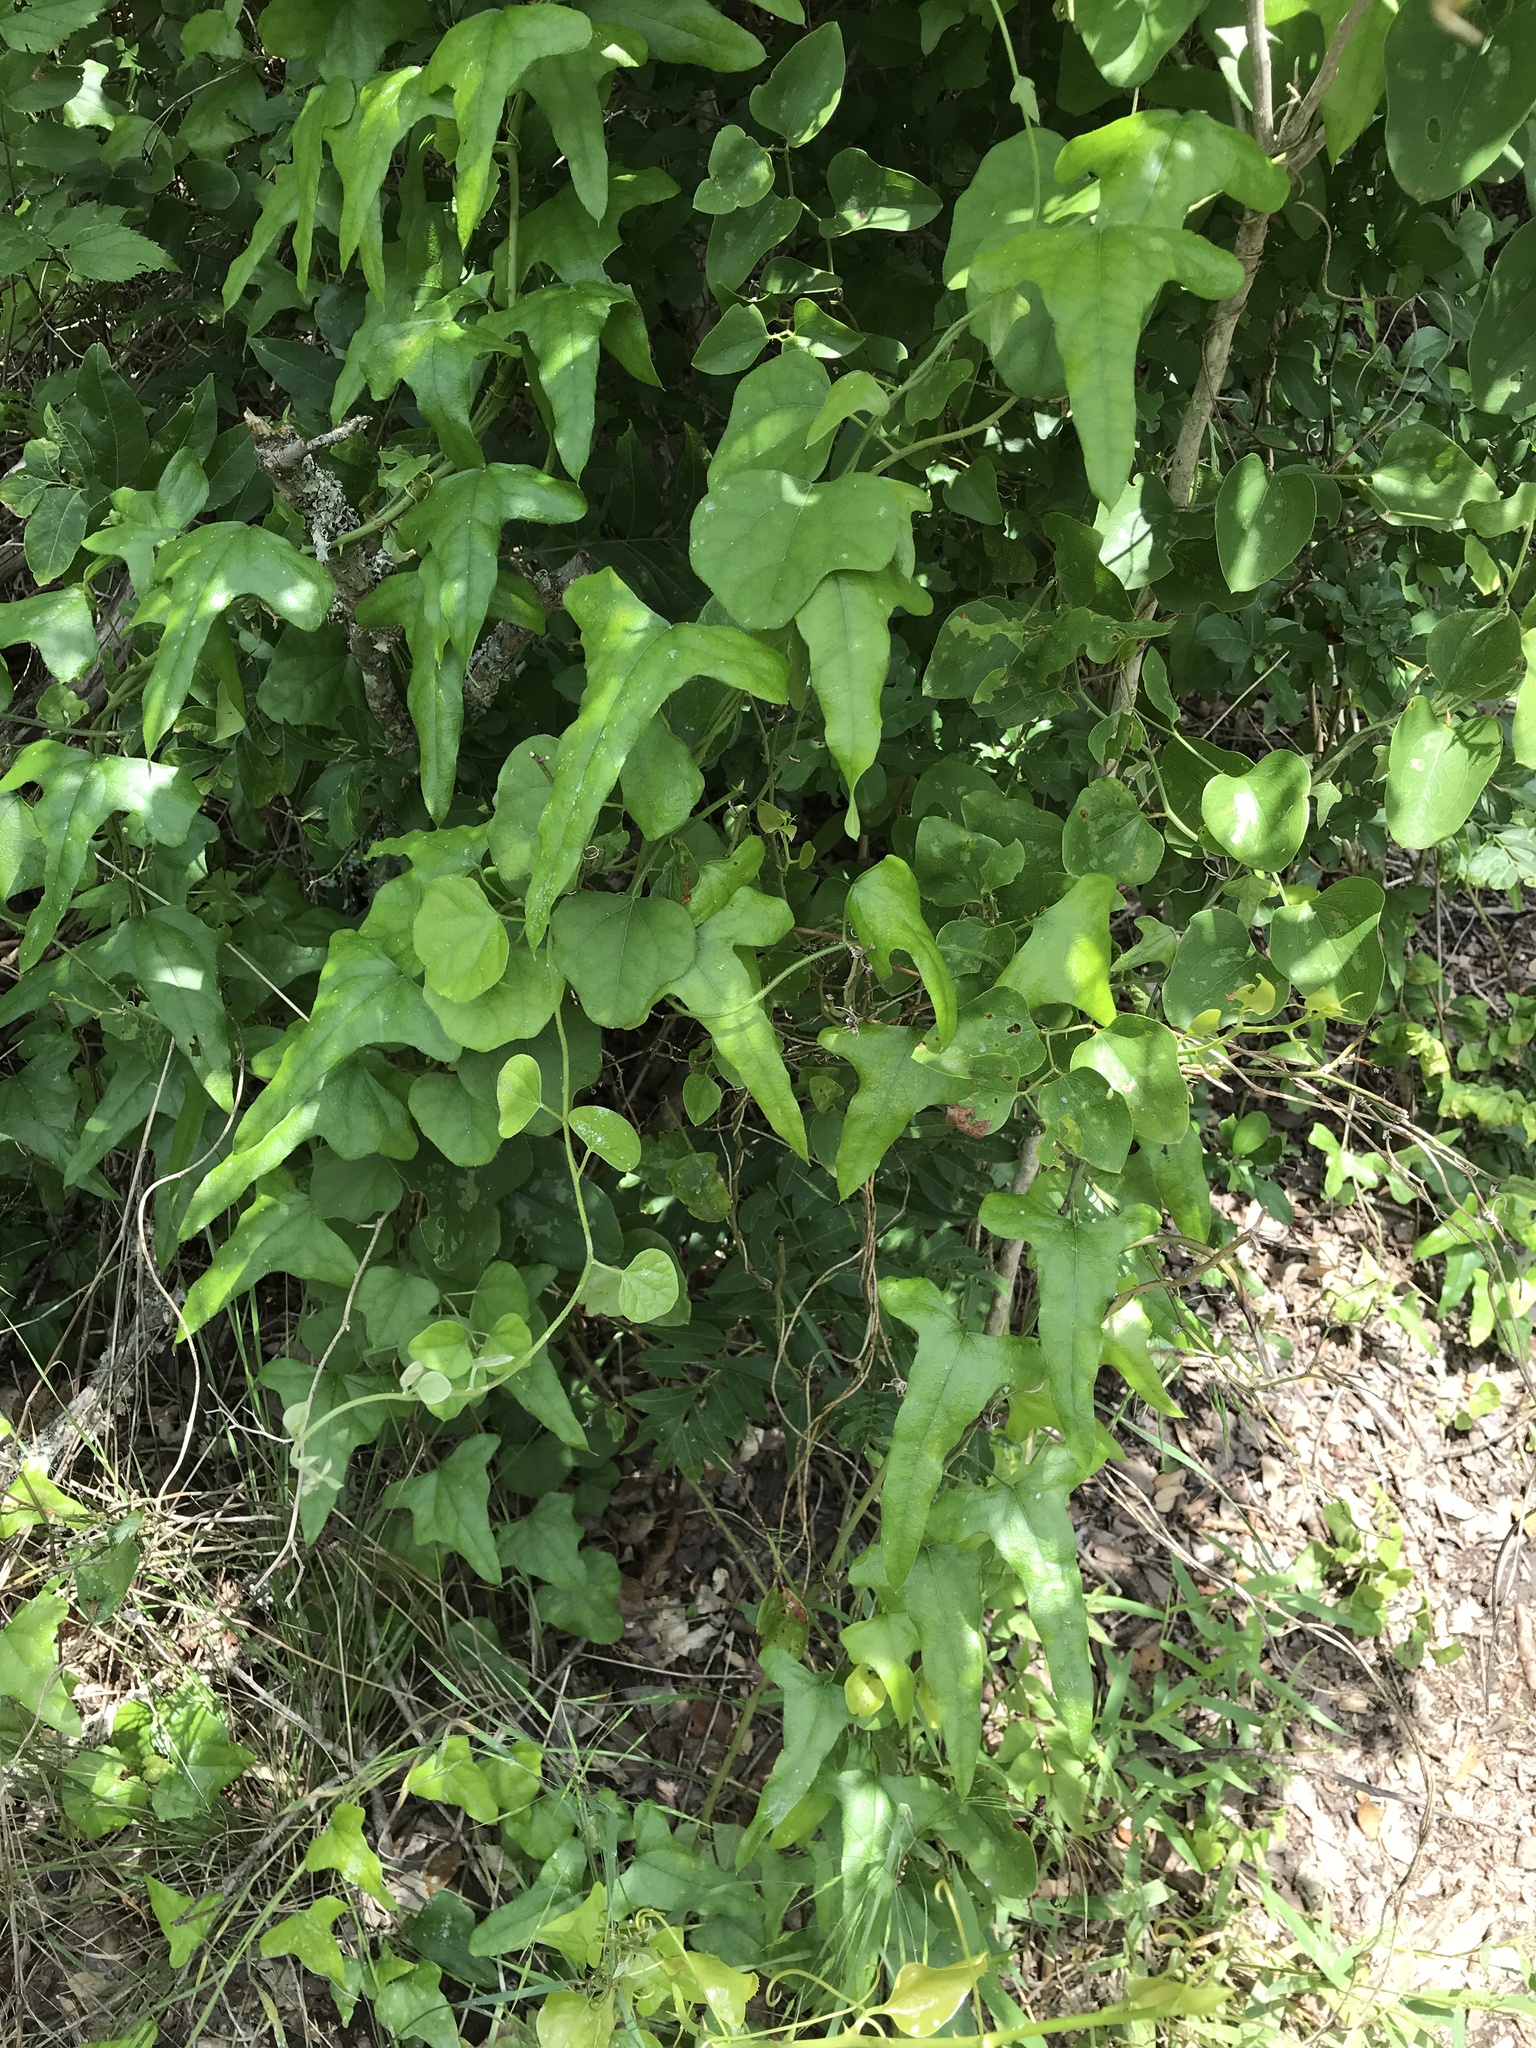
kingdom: Plantae
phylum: Tracheophyta
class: Magnoliopsida
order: Ranunculales
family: Menispermaceae
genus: Cocculus
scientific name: Cocculus carolinus
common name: Carolina moonseed
